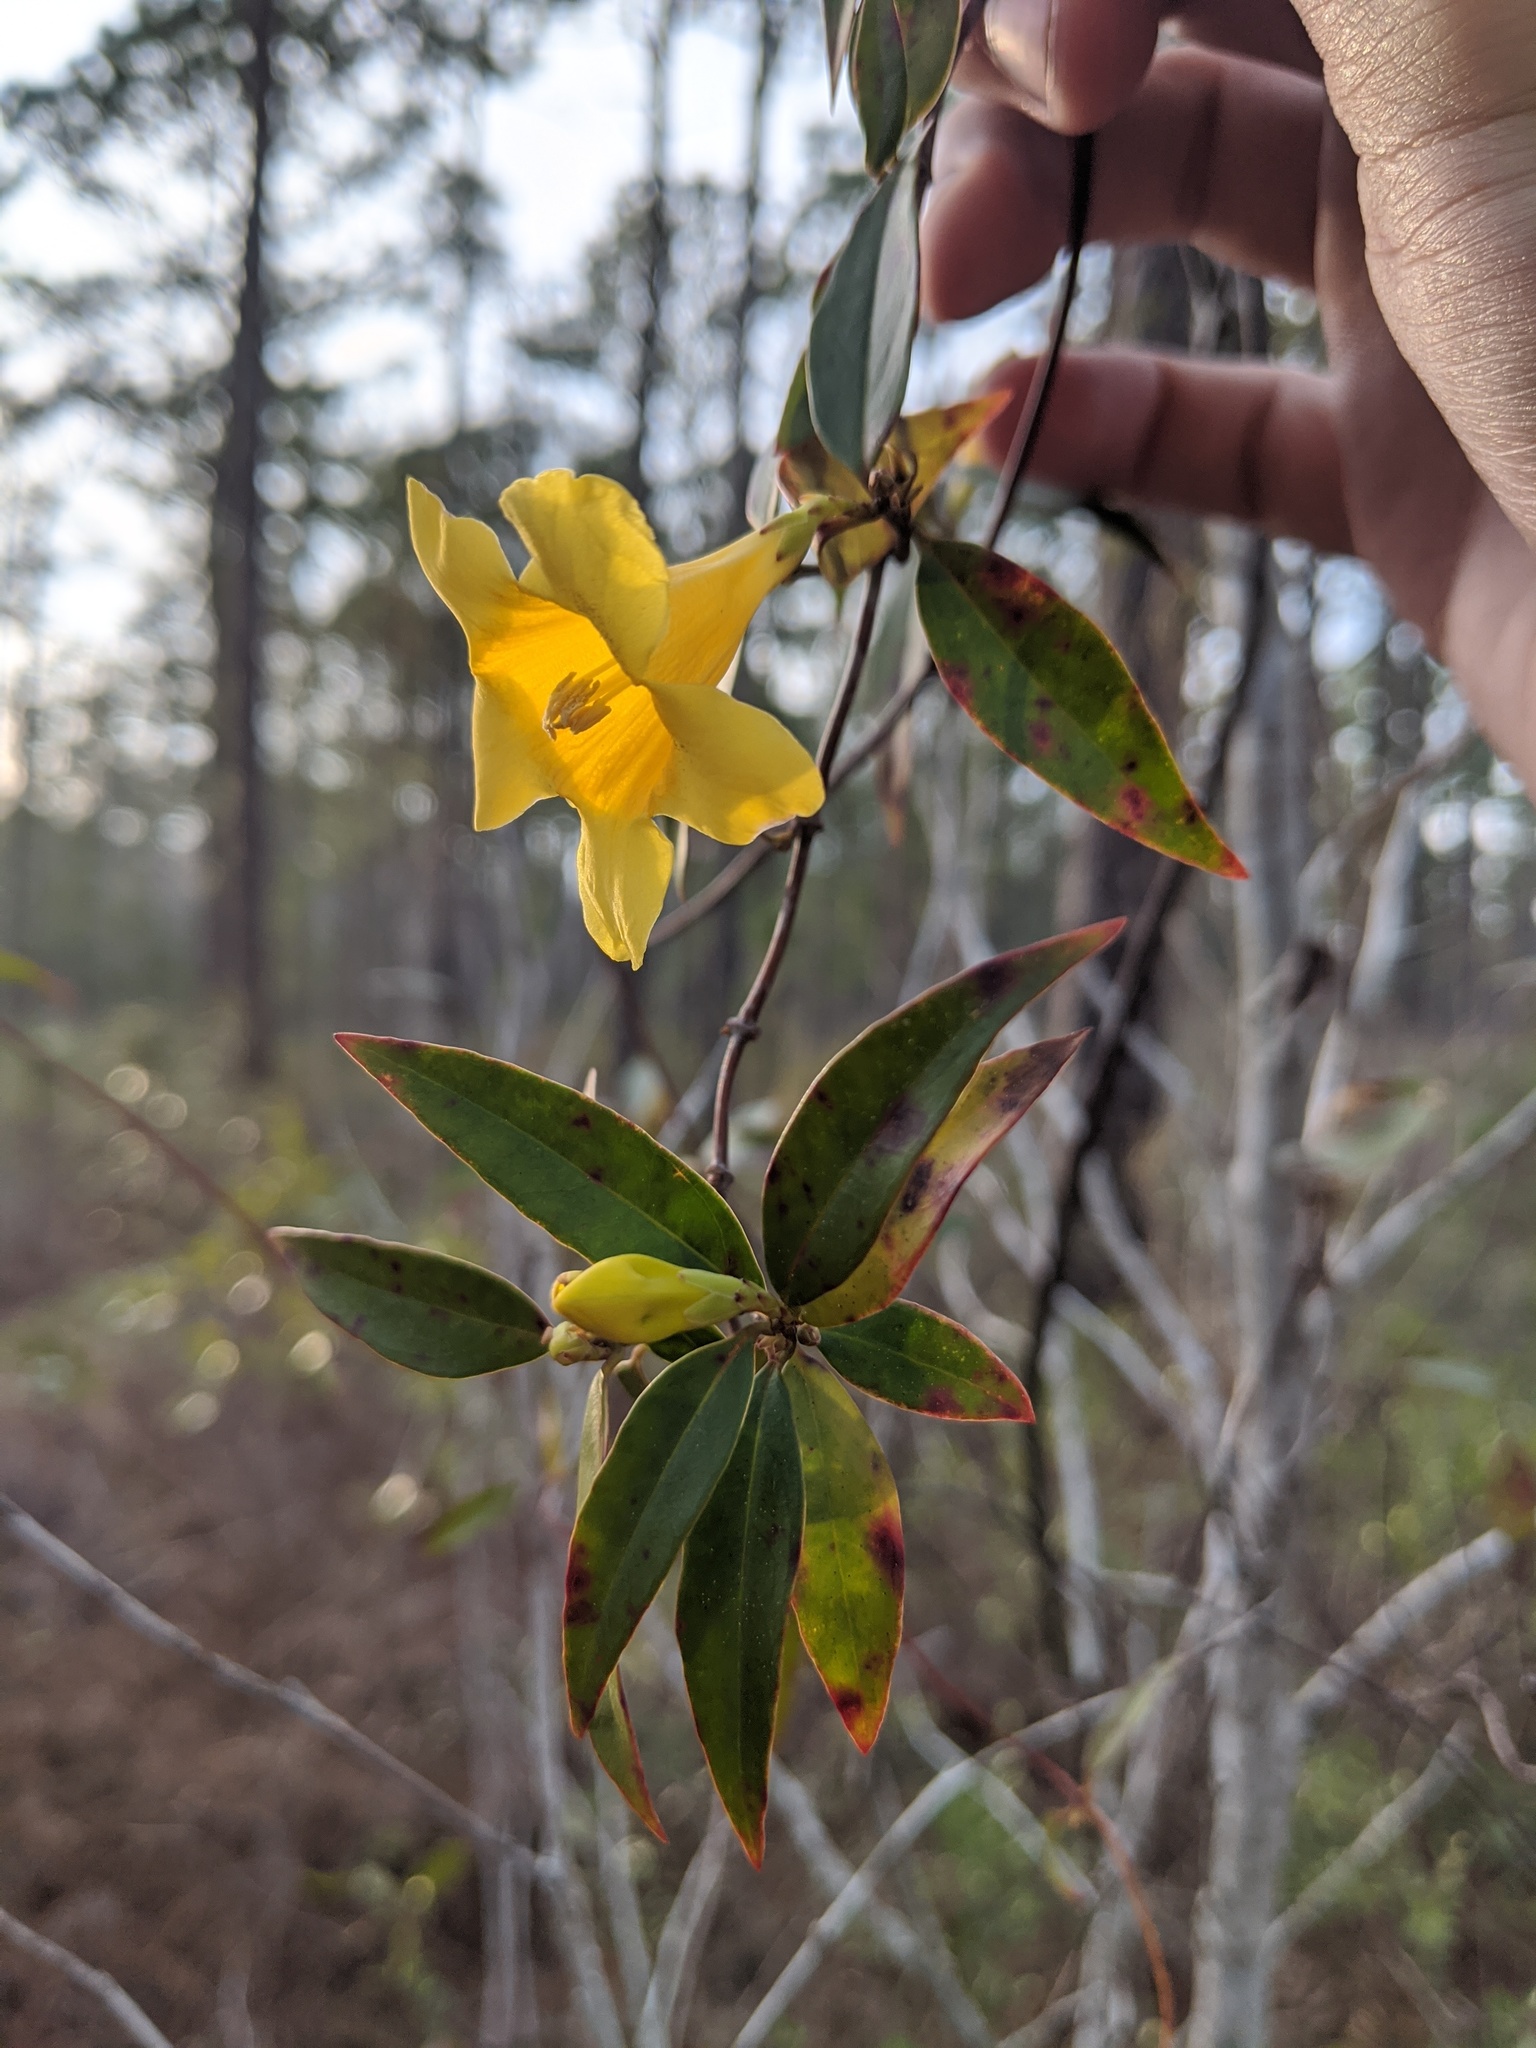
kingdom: Plantae
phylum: Tracheophyta
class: Magnoliopsida
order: Gentianales
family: Gelsemiaceae
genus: Gelsemium
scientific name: Gelsemium sempervirens
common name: Carolina-jasmine
